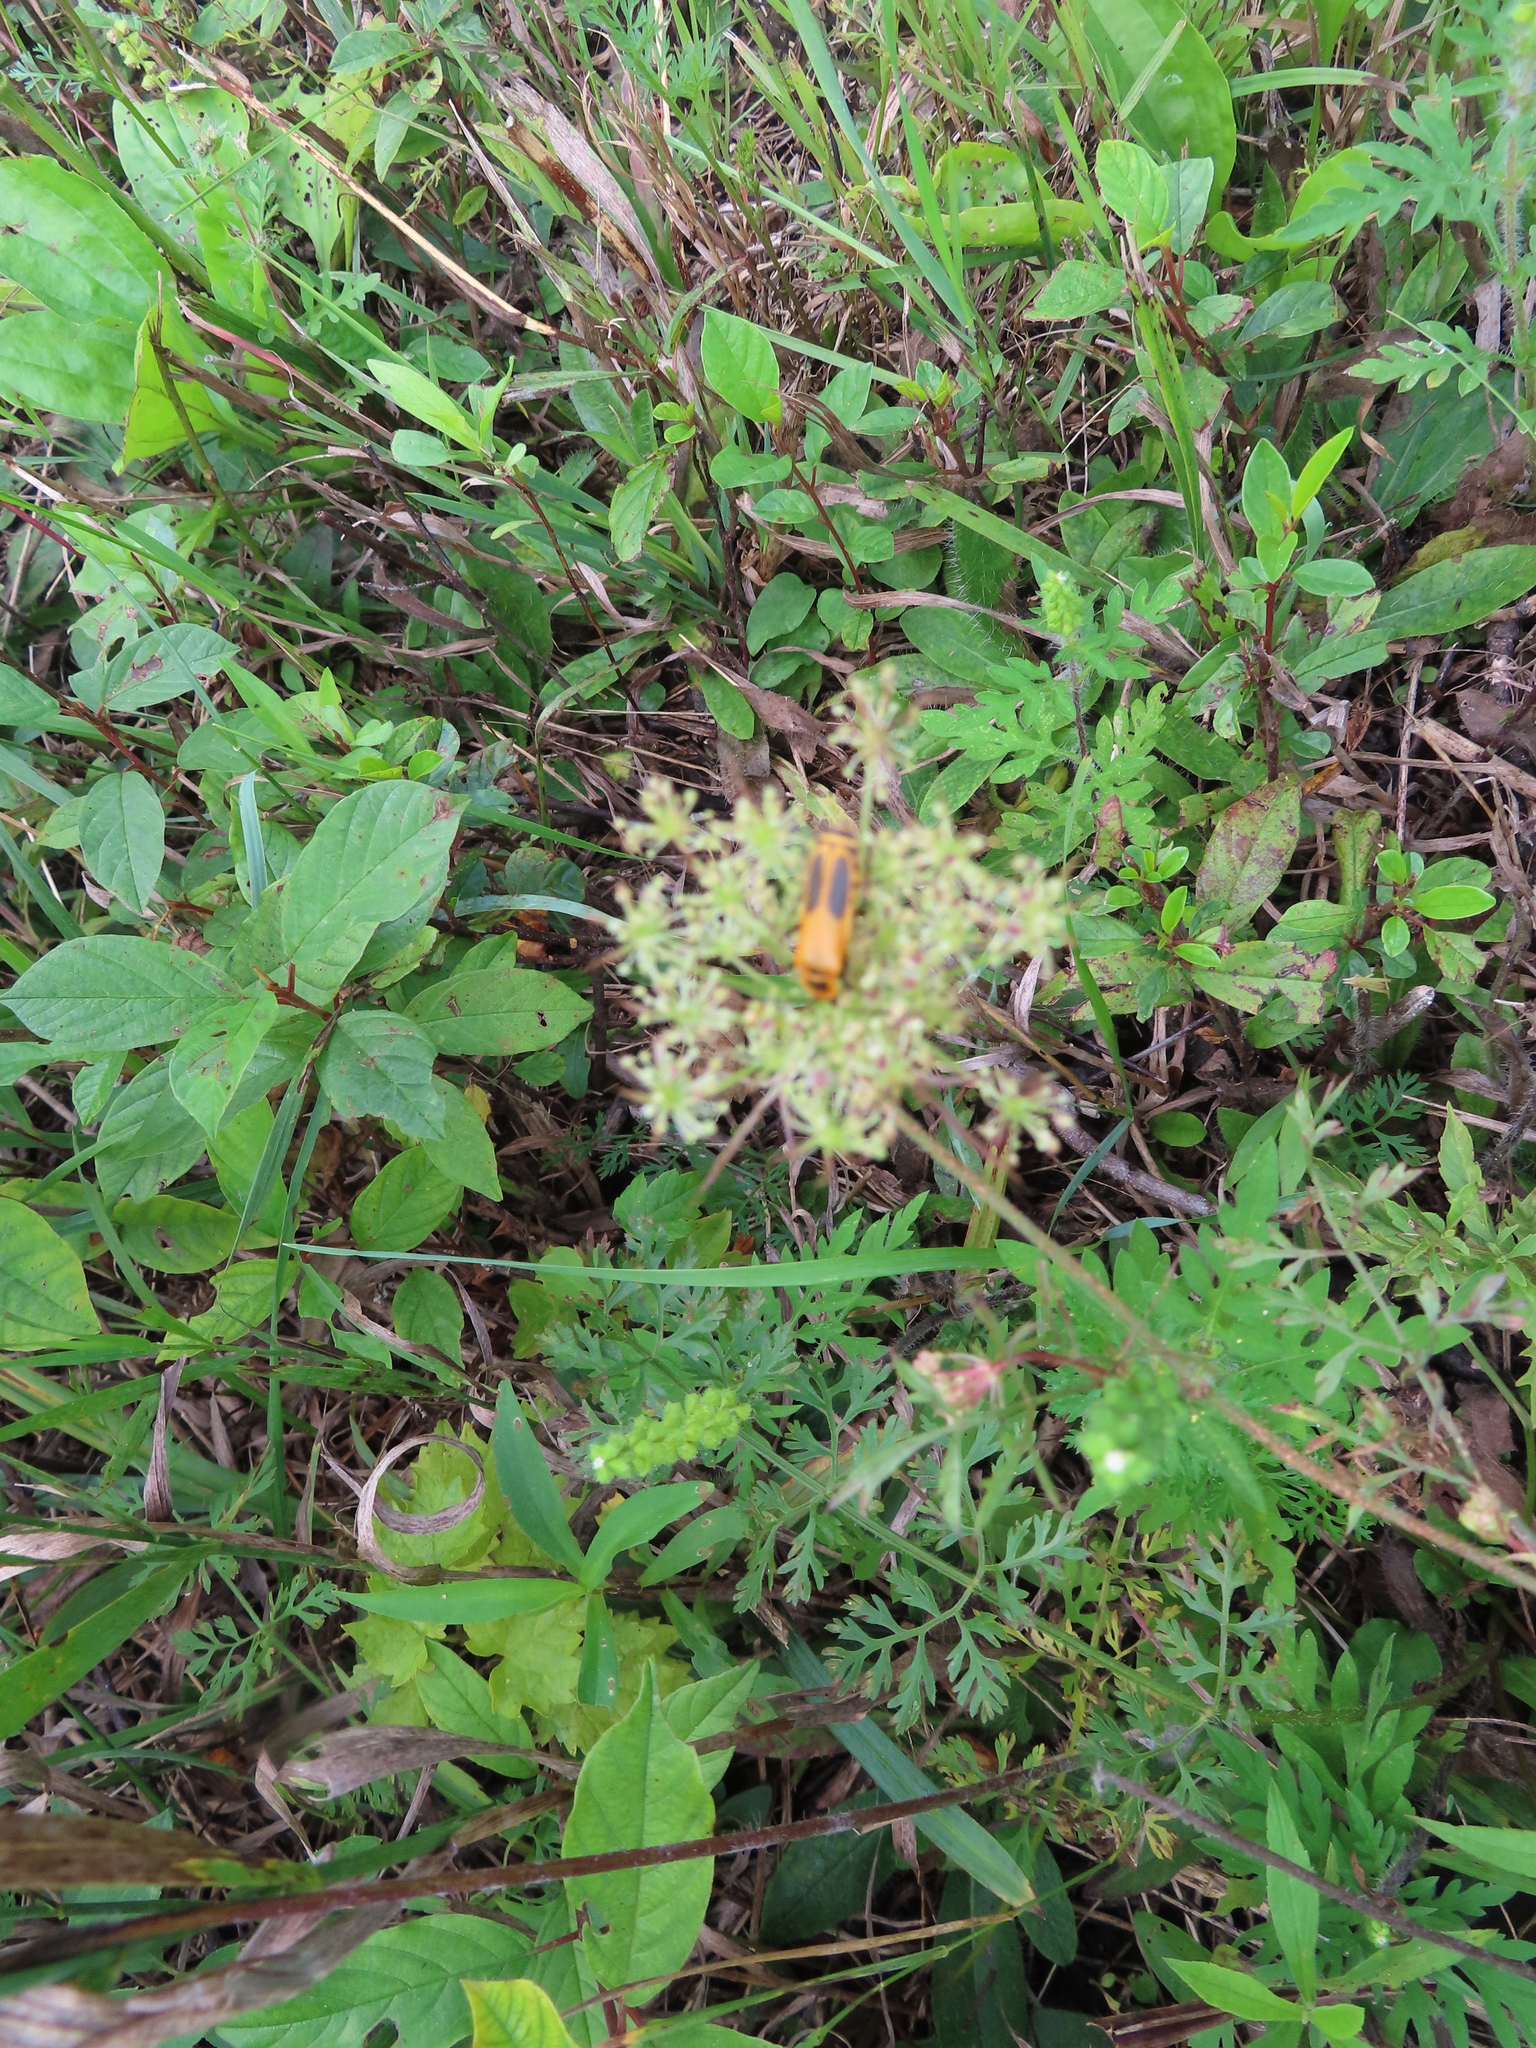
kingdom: Animalia
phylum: Arthropoda
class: Insecta
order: Coleoptera
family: Cantharidae
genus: Chauliognathus
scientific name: Chauliognathus pensylvanicus
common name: Goldenrod soldier beetle
